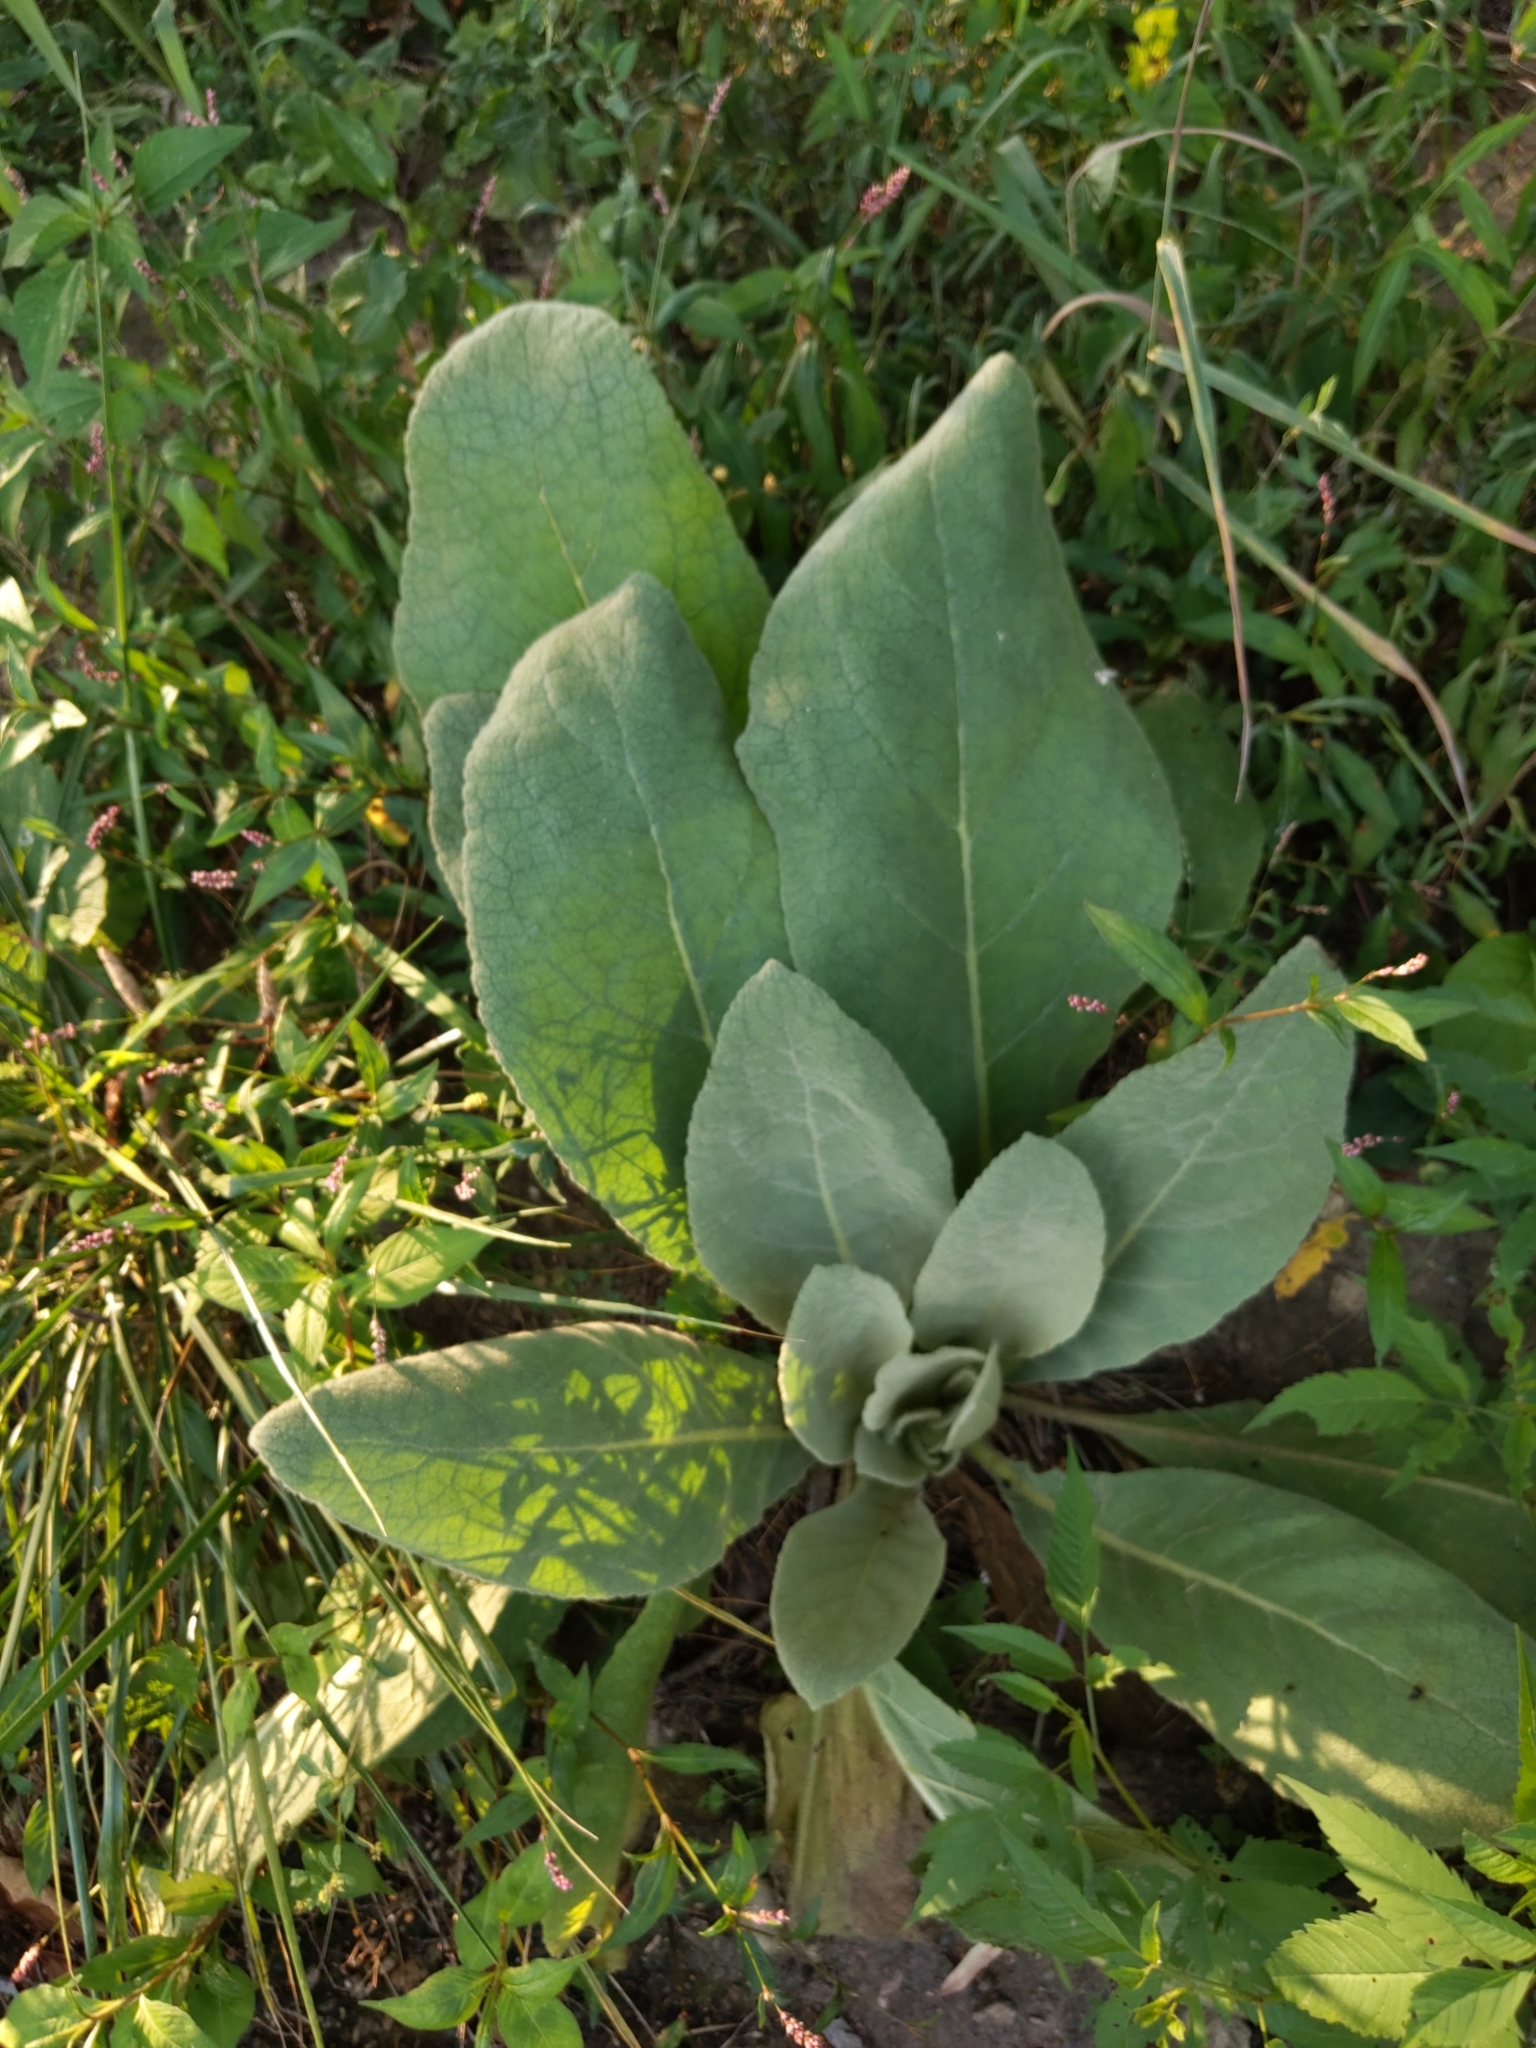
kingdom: Plantae
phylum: Tracheophyta
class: Magnoliopsida
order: Lamiales
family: Scrophulariaceae
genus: Verbascum
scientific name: Verbascum thapsus
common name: Common mullein
